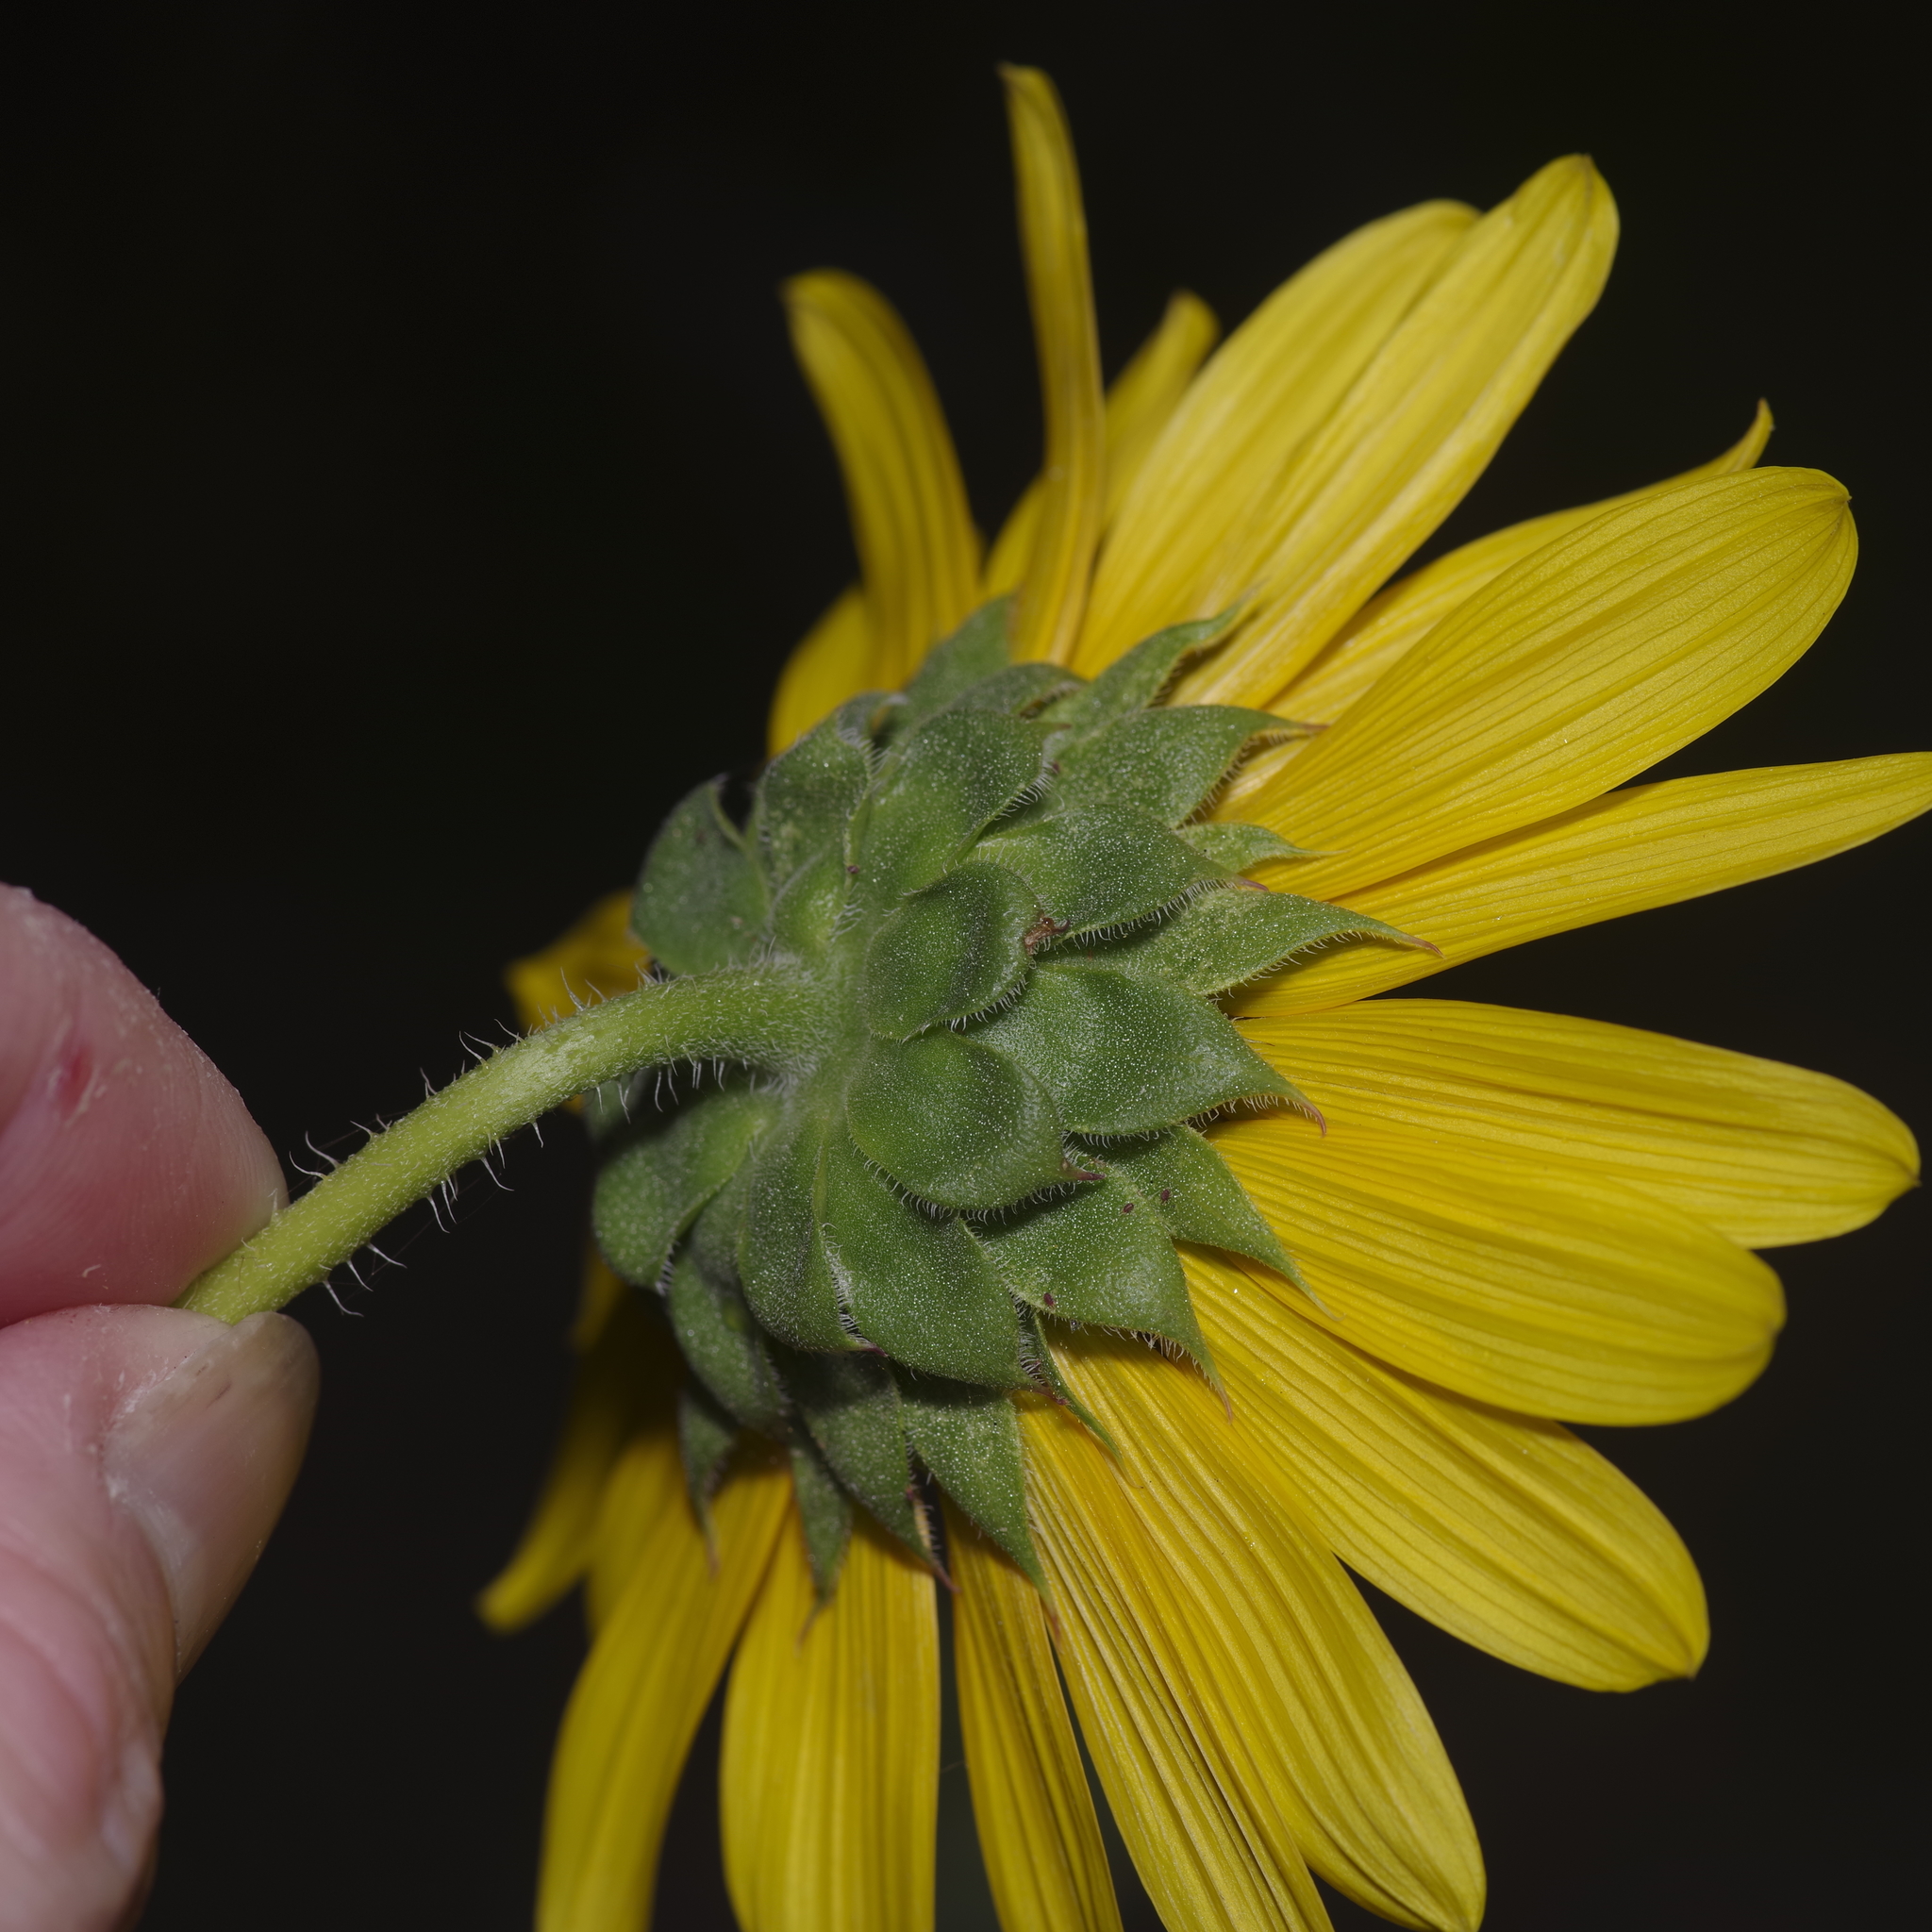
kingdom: Plantae
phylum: Tracheophyta
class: Magnoliopsida
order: Asterales
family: Asteraceae
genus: Helianthus
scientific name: Helianthus annuus
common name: Sunflower
